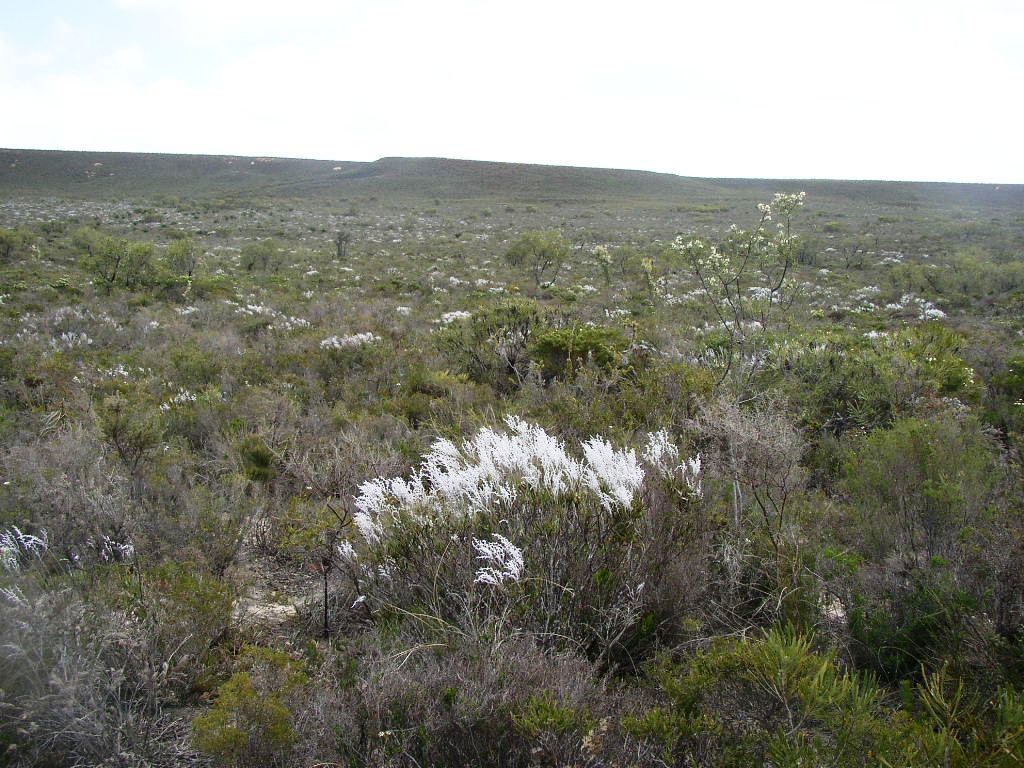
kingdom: Plantae
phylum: Tracheophyta
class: Magnoliopsida
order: Proteales
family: Proteaceae
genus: Conospermum
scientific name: Conospermum wycherleyi
